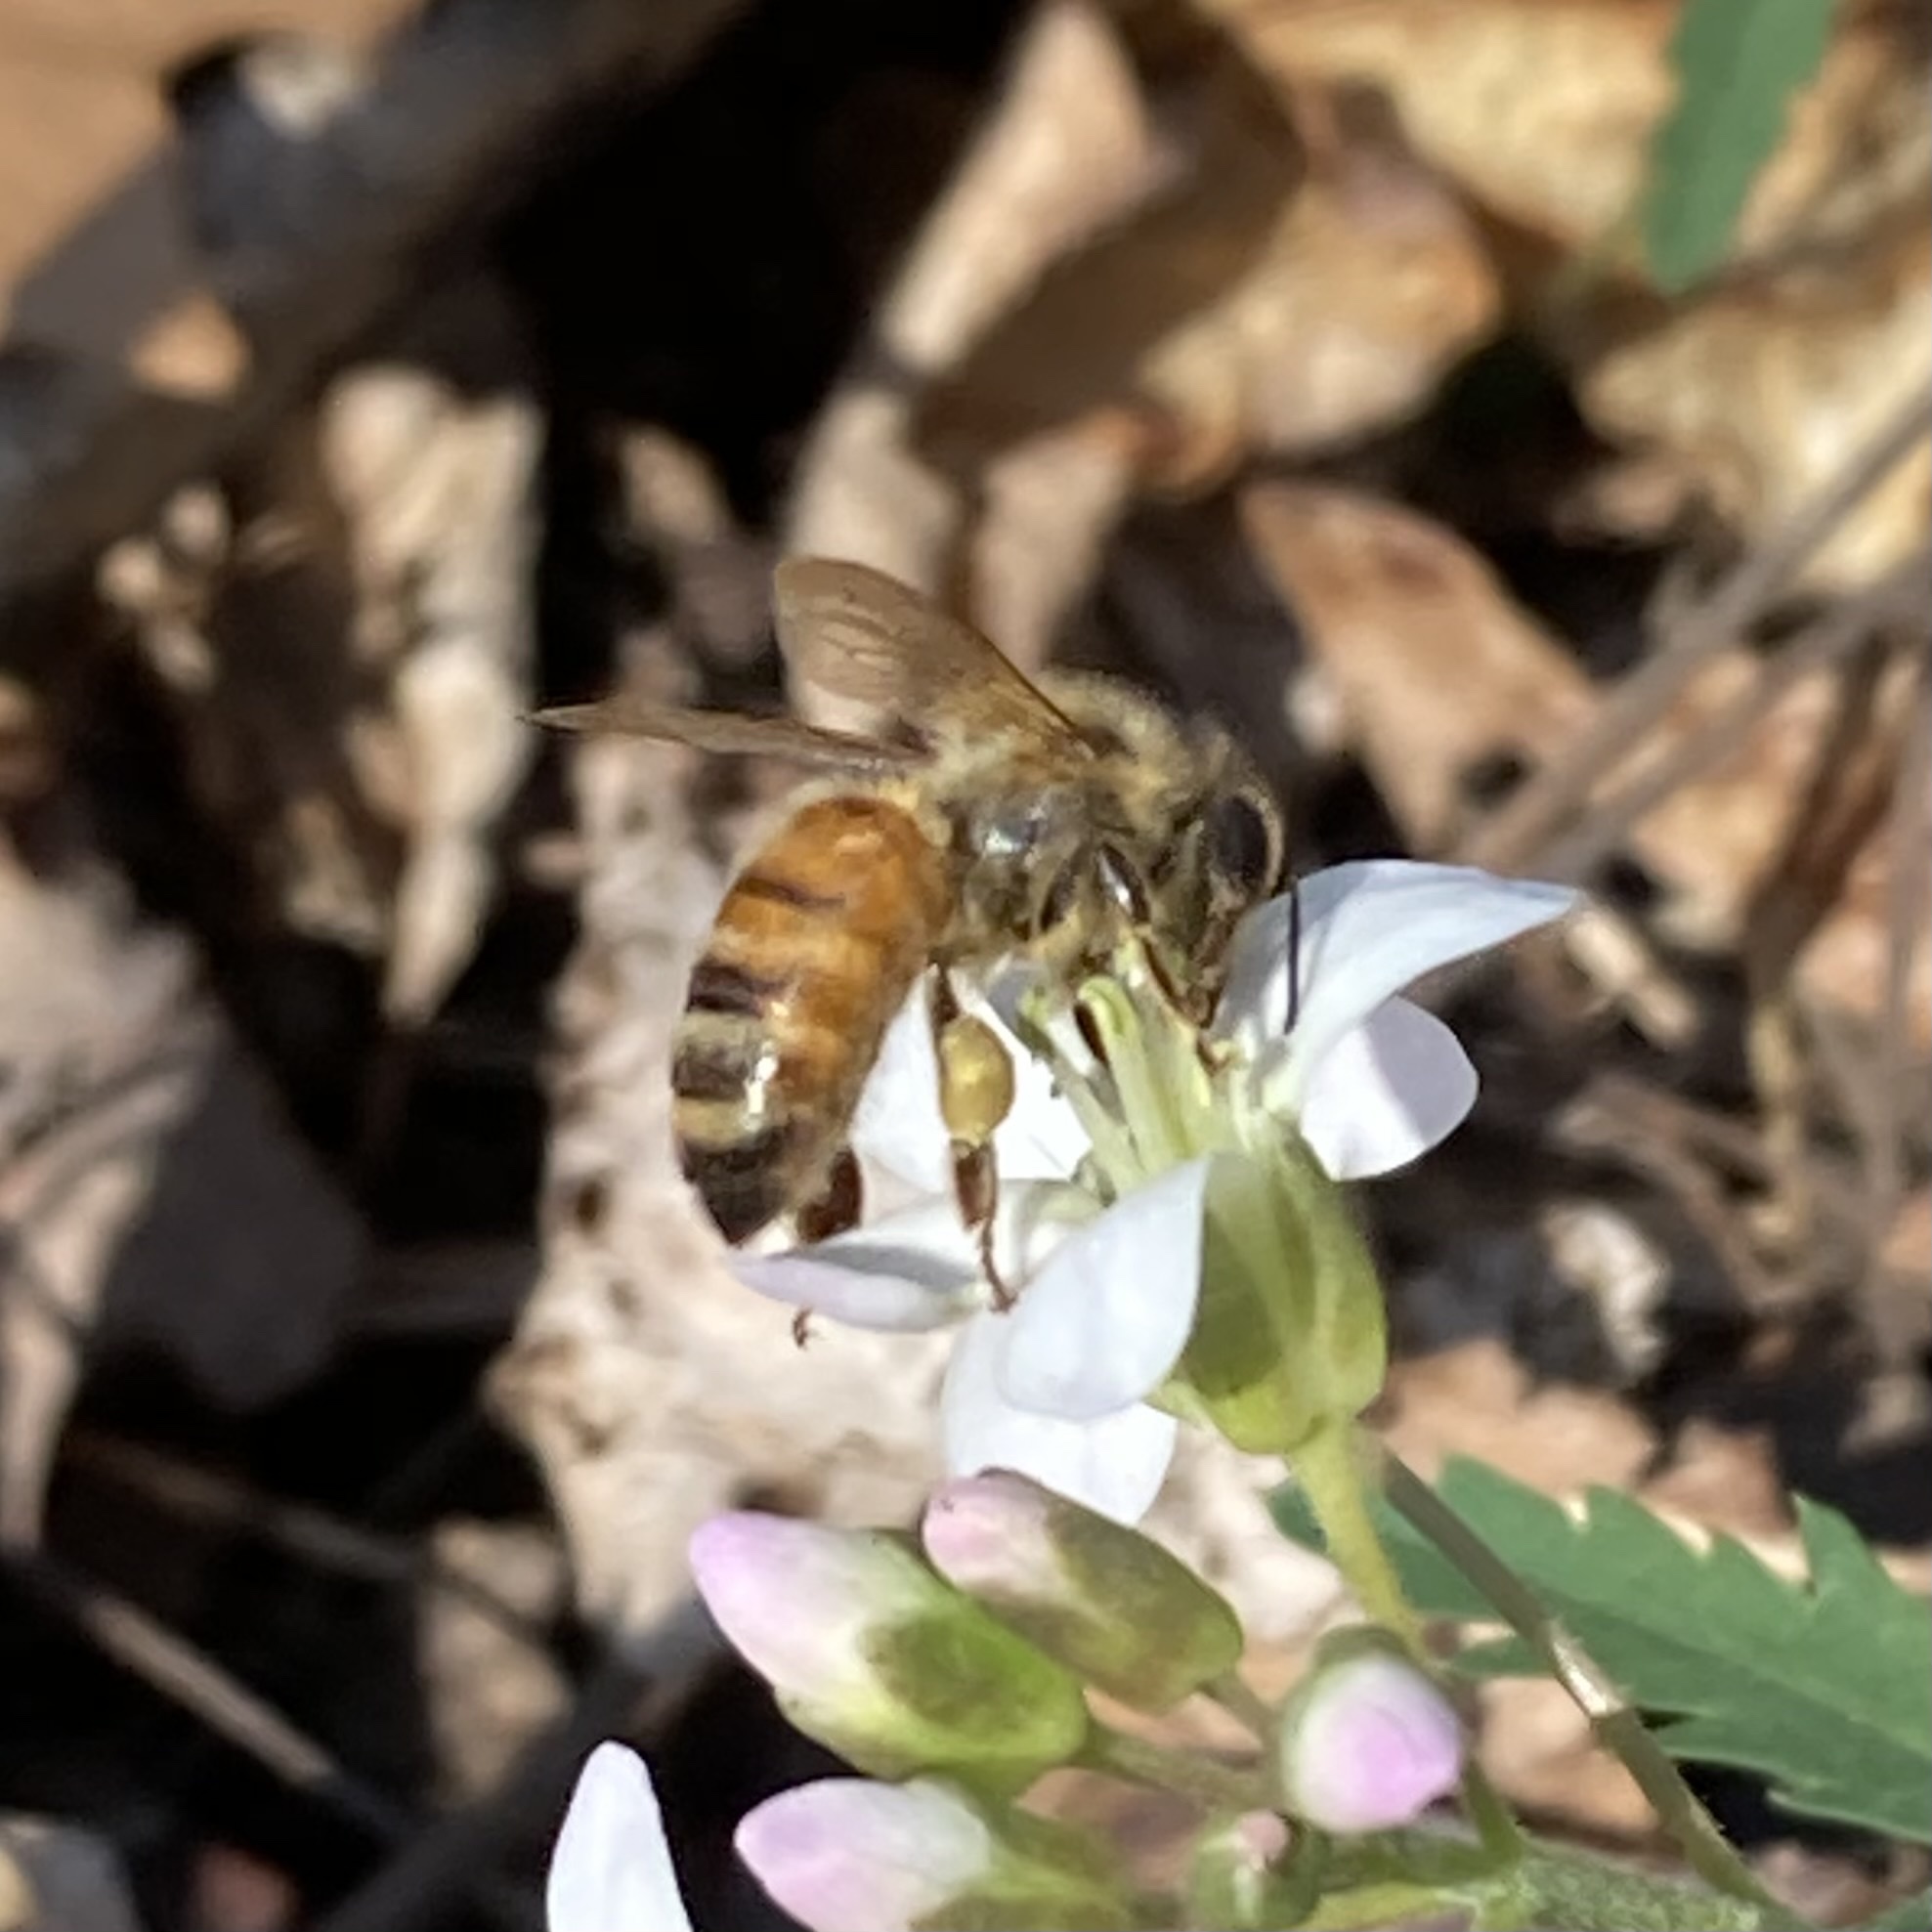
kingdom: Animalia
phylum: Arthropoda
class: Insecta
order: Hymenoptera
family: Apidae
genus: Apis
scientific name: Apis mellifera
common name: Honey bee
